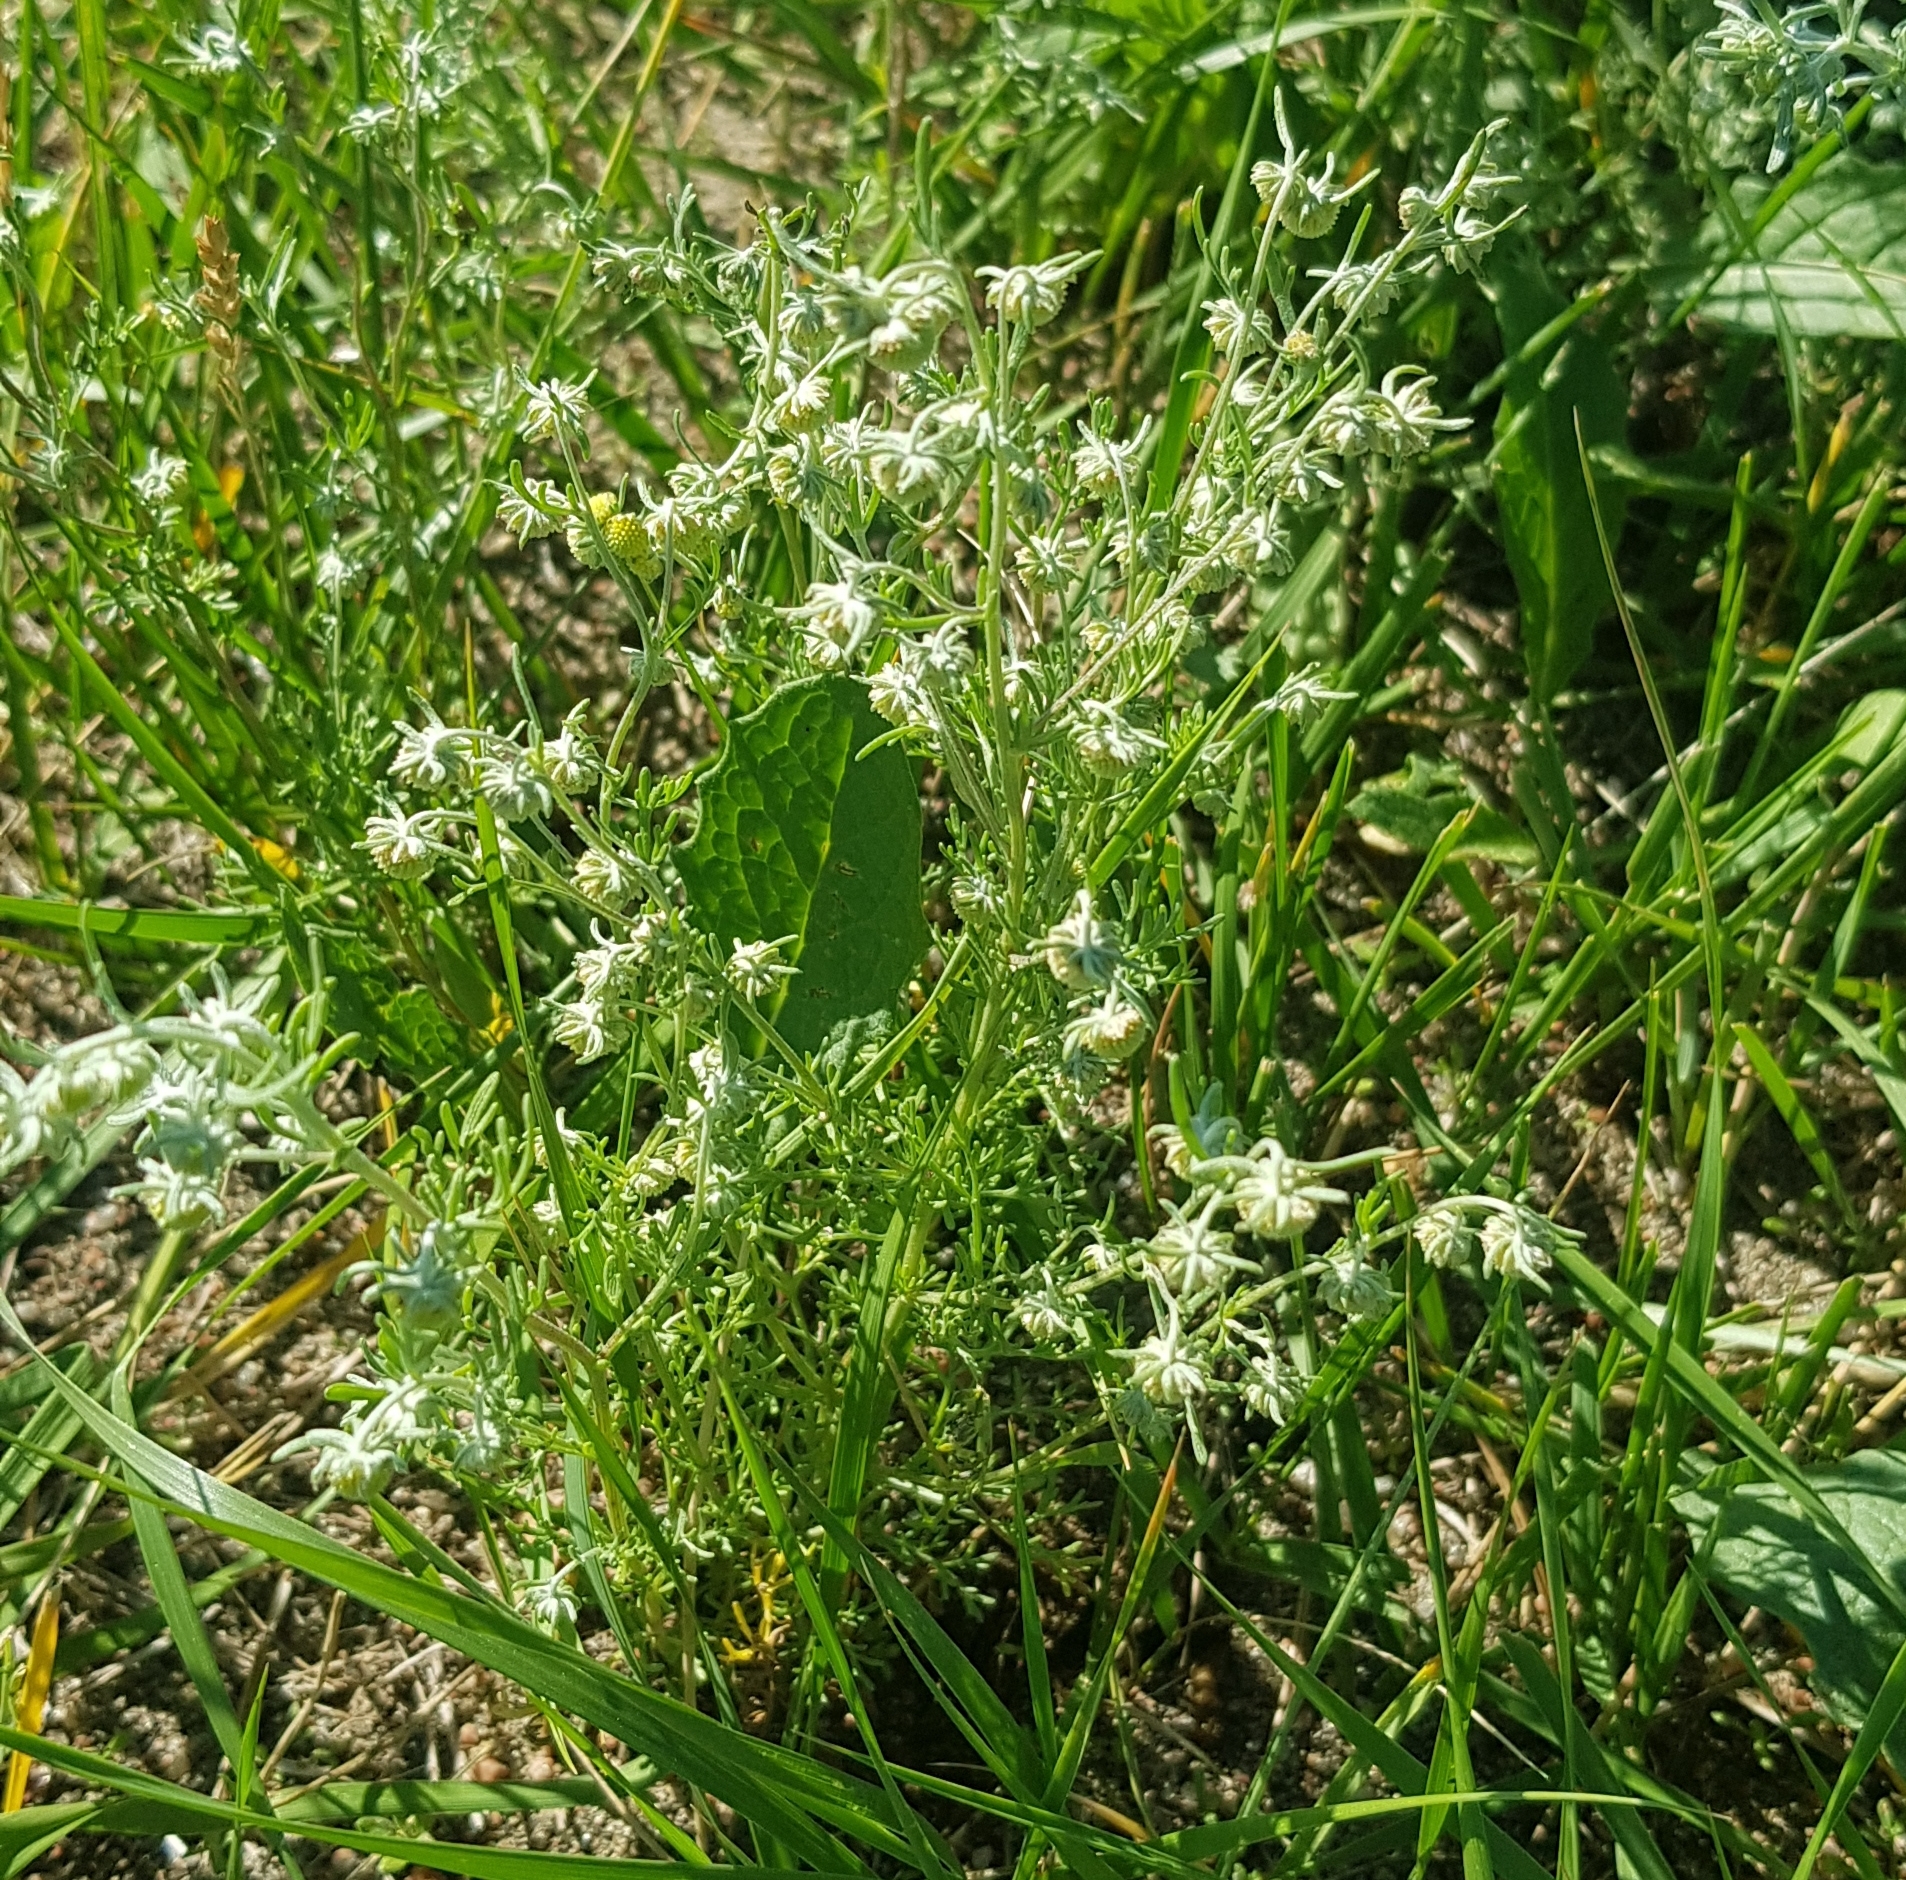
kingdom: Plantae
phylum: Tracheophyta
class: Magnoliopsida
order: Asterales
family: Asteraceae
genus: Artemisia
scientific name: Artemisia sieversiana
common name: Sieversian wormwood
